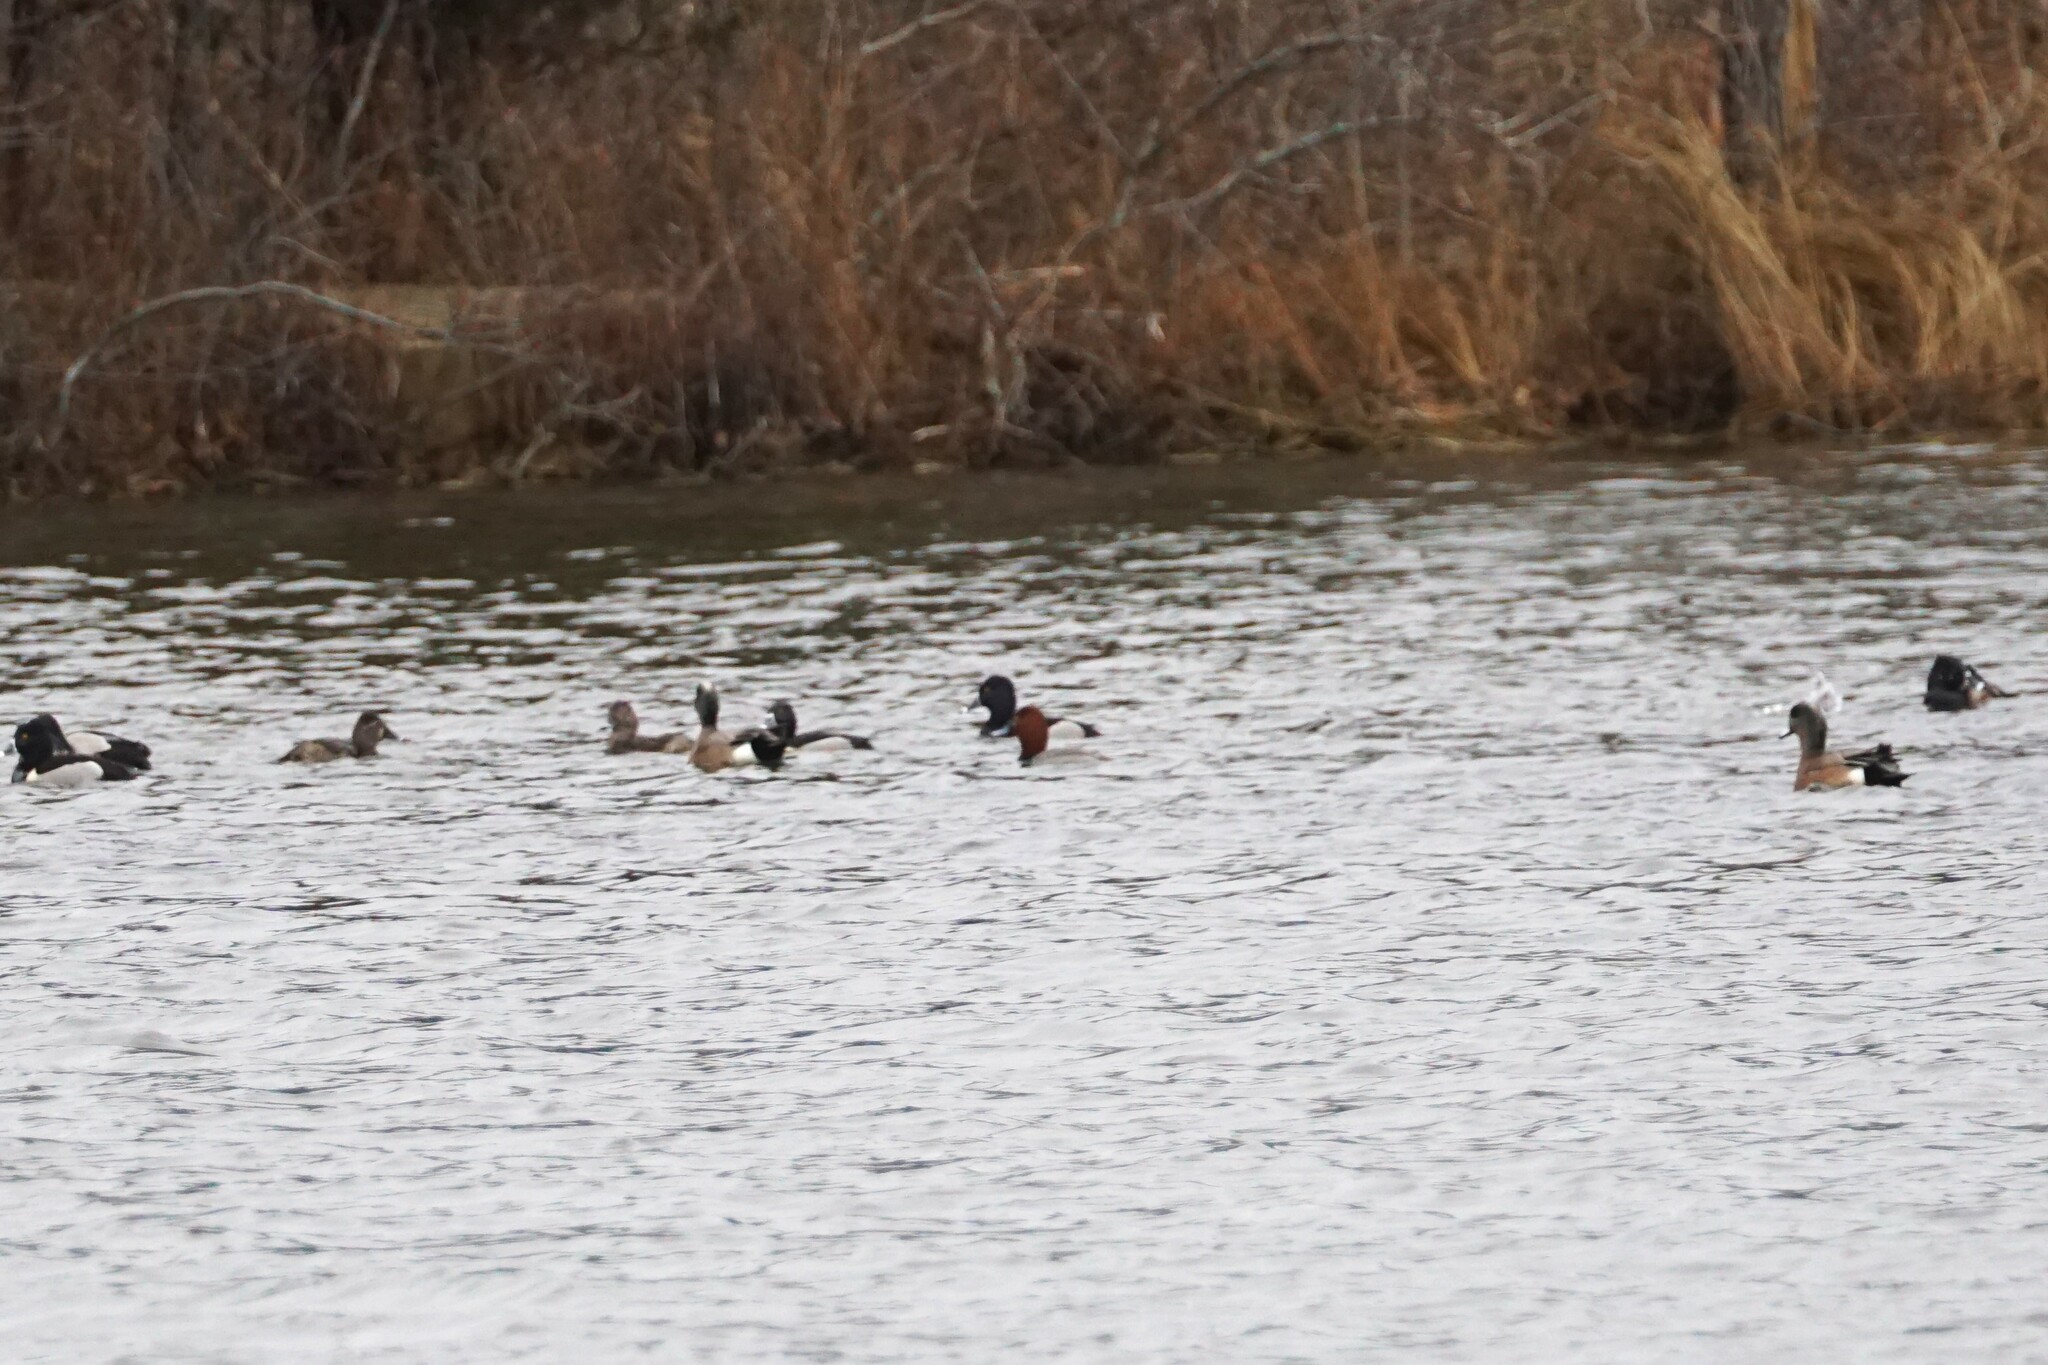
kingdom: Animalia
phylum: Chordata
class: Aves
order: Anseriformes
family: Anatidae
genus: Aythya
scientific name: Aythya americana
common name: Redhead
